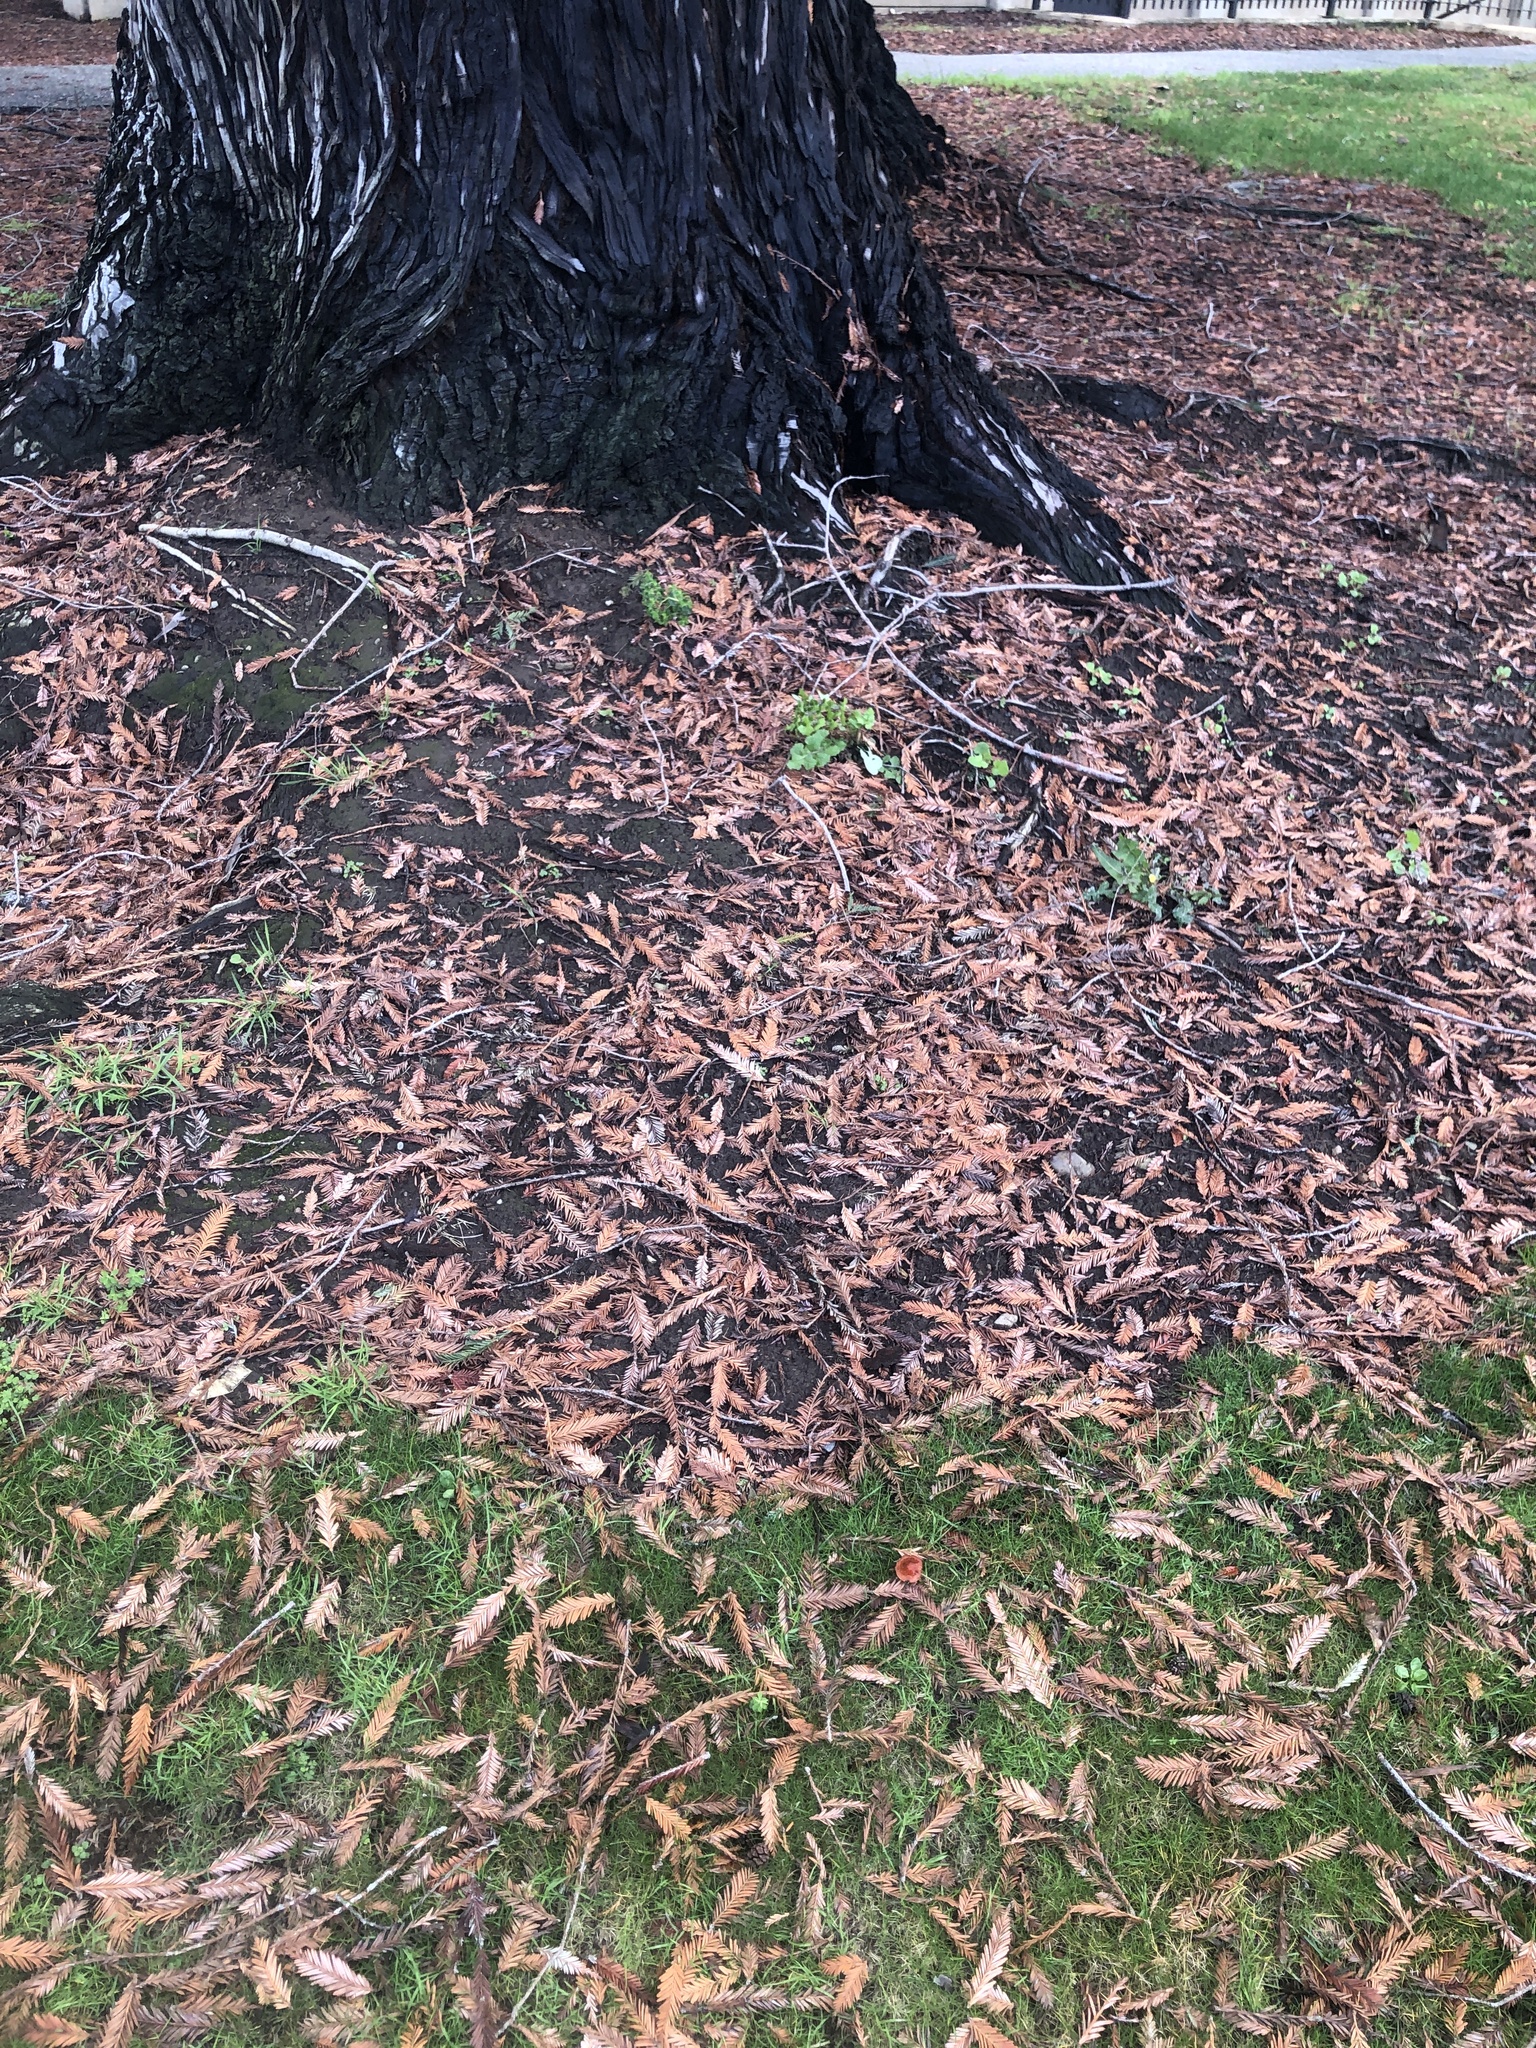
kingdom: Fungi
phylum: Basidiomycota
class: Agaricomycetes
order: Agaricales
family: Strophariaceae
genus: Leratiomyces
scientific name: Leratiomyces ceres
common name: Redlead roundhead
